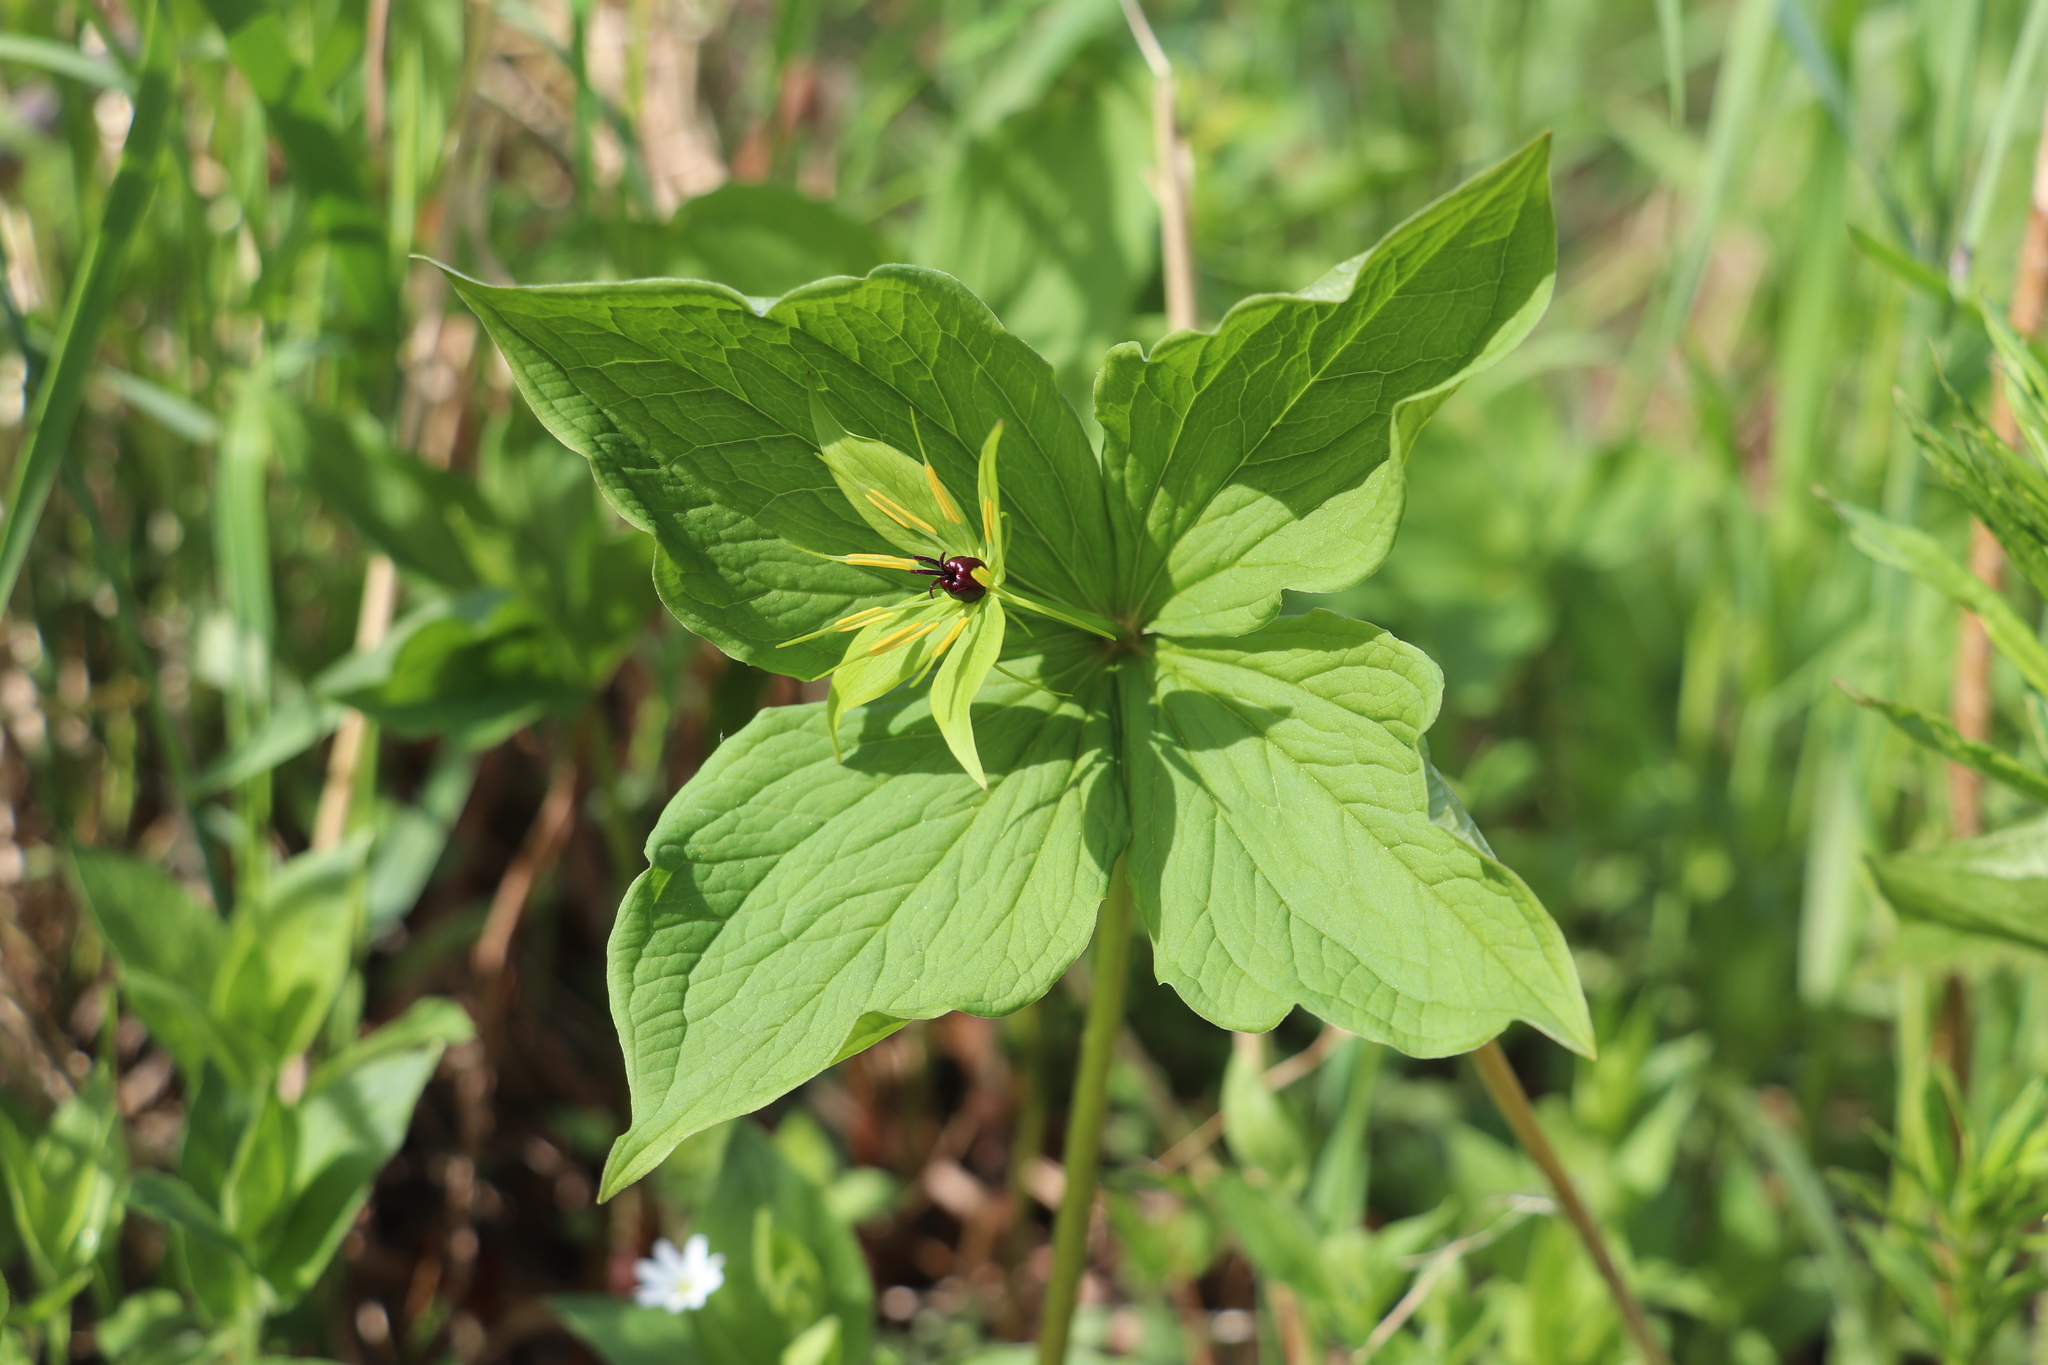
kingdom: Plantae
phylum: Tracheophyta
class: Liliopsida
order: Liliales
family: Melanthiaceae
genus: Paris
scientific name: Paris quadrifolia
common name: Herb-paris
